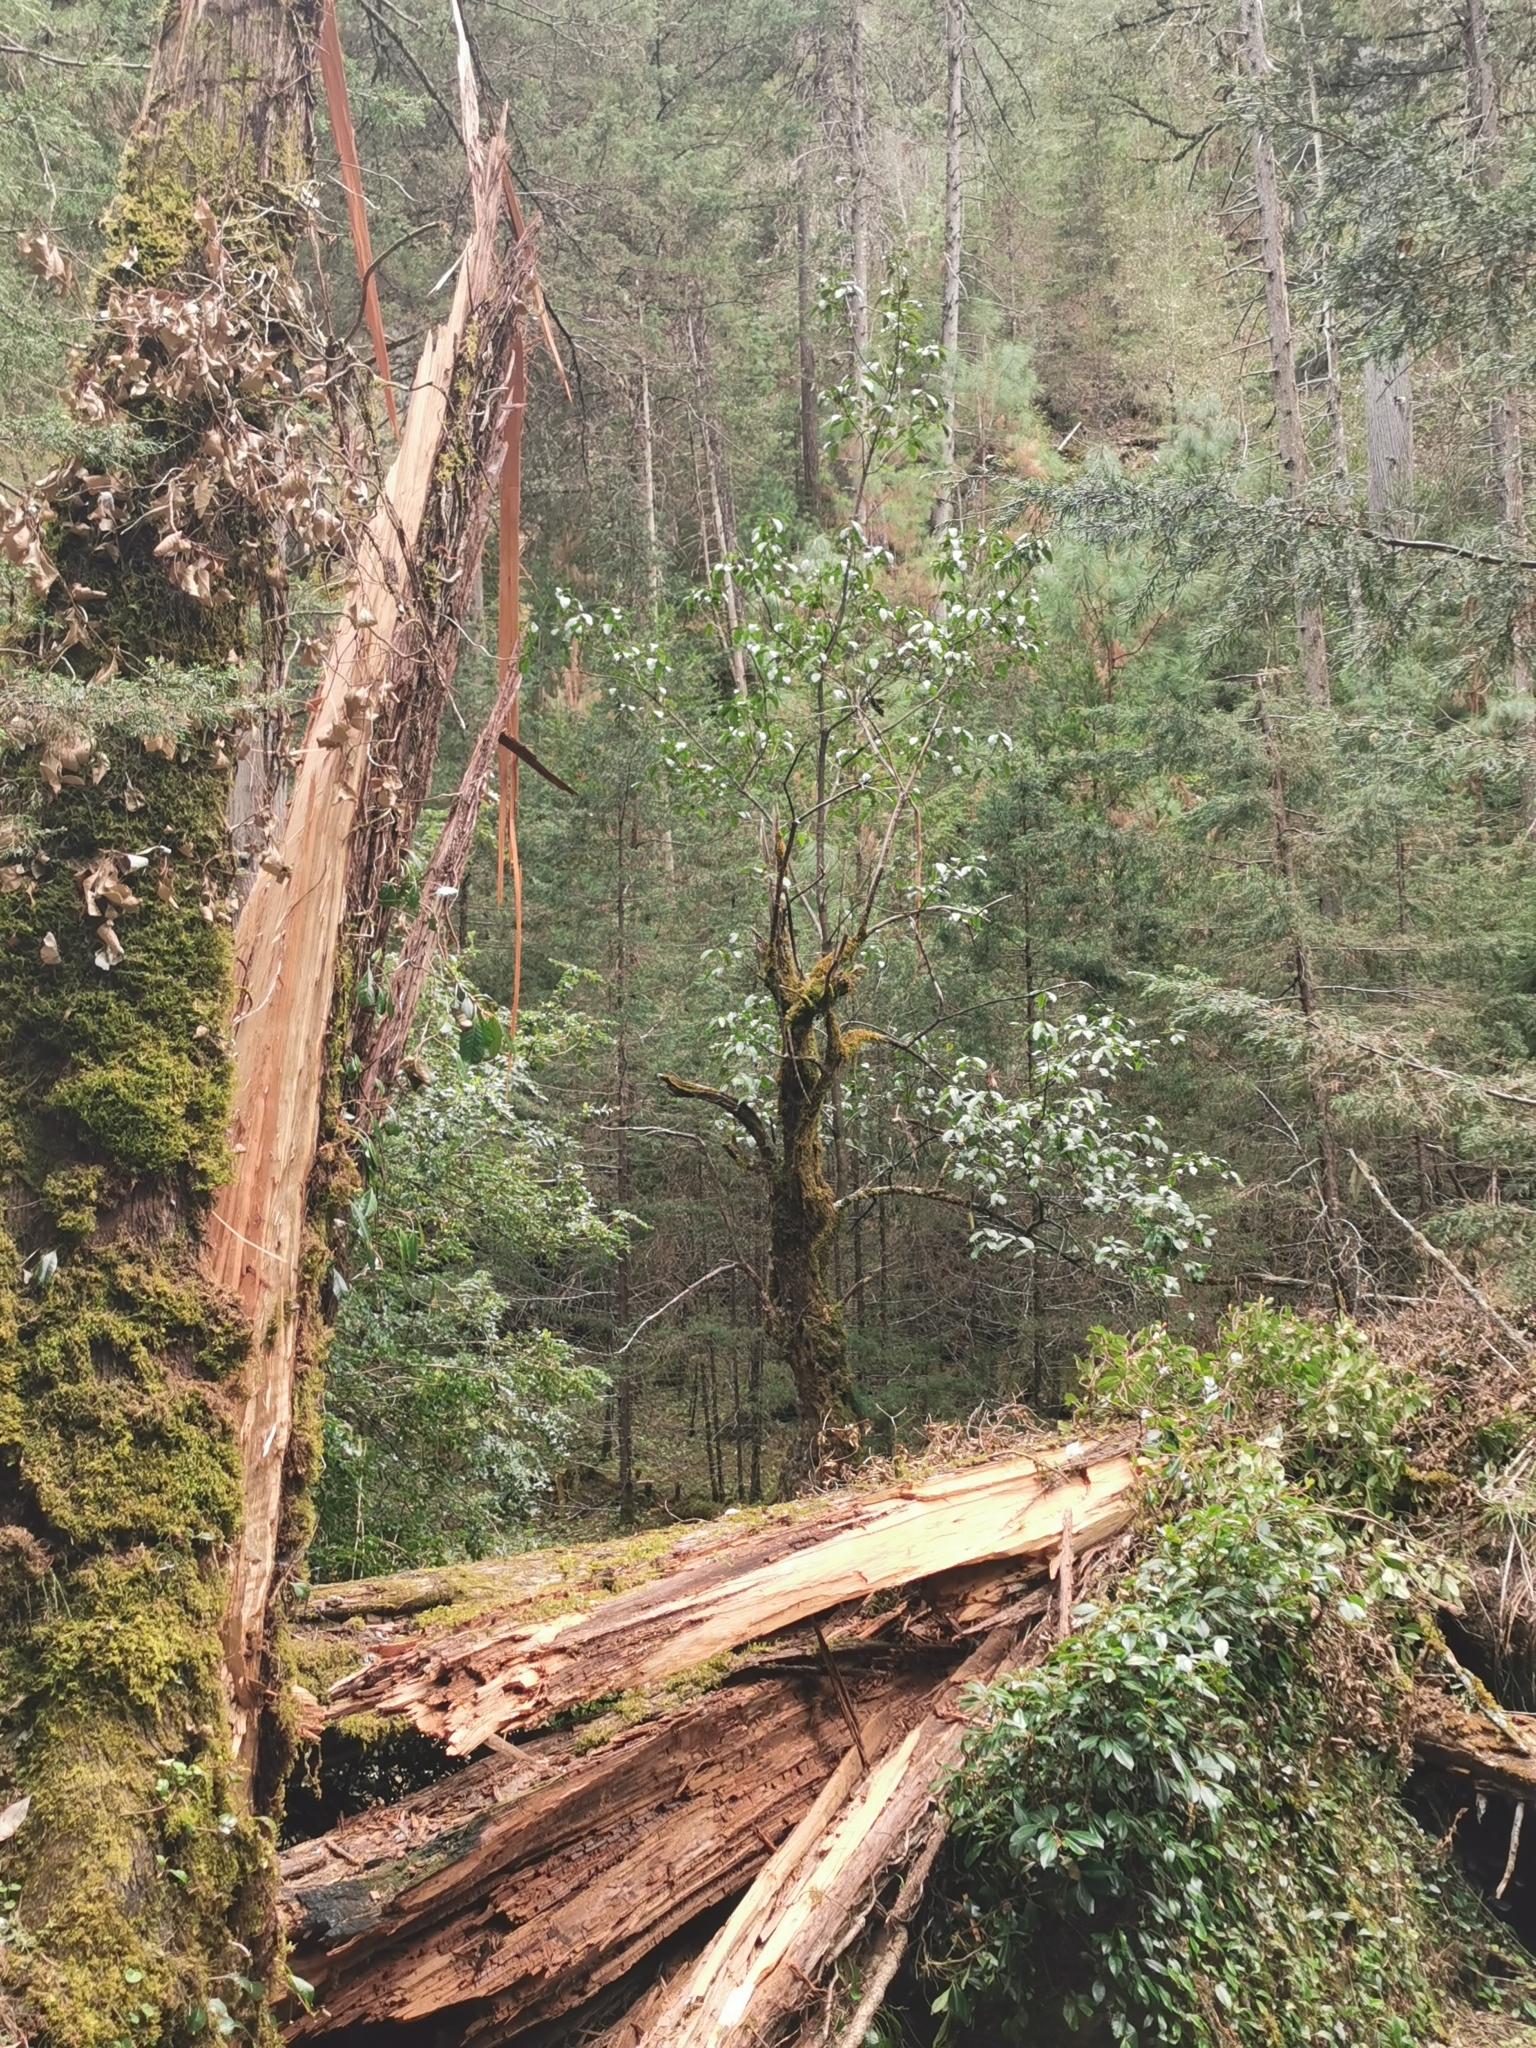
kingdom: Plantae
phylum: Tracheophyta
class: Magnoliopsida
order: Garryales
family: Garryaceae
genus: Garrya
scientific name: Garrya longifolia
